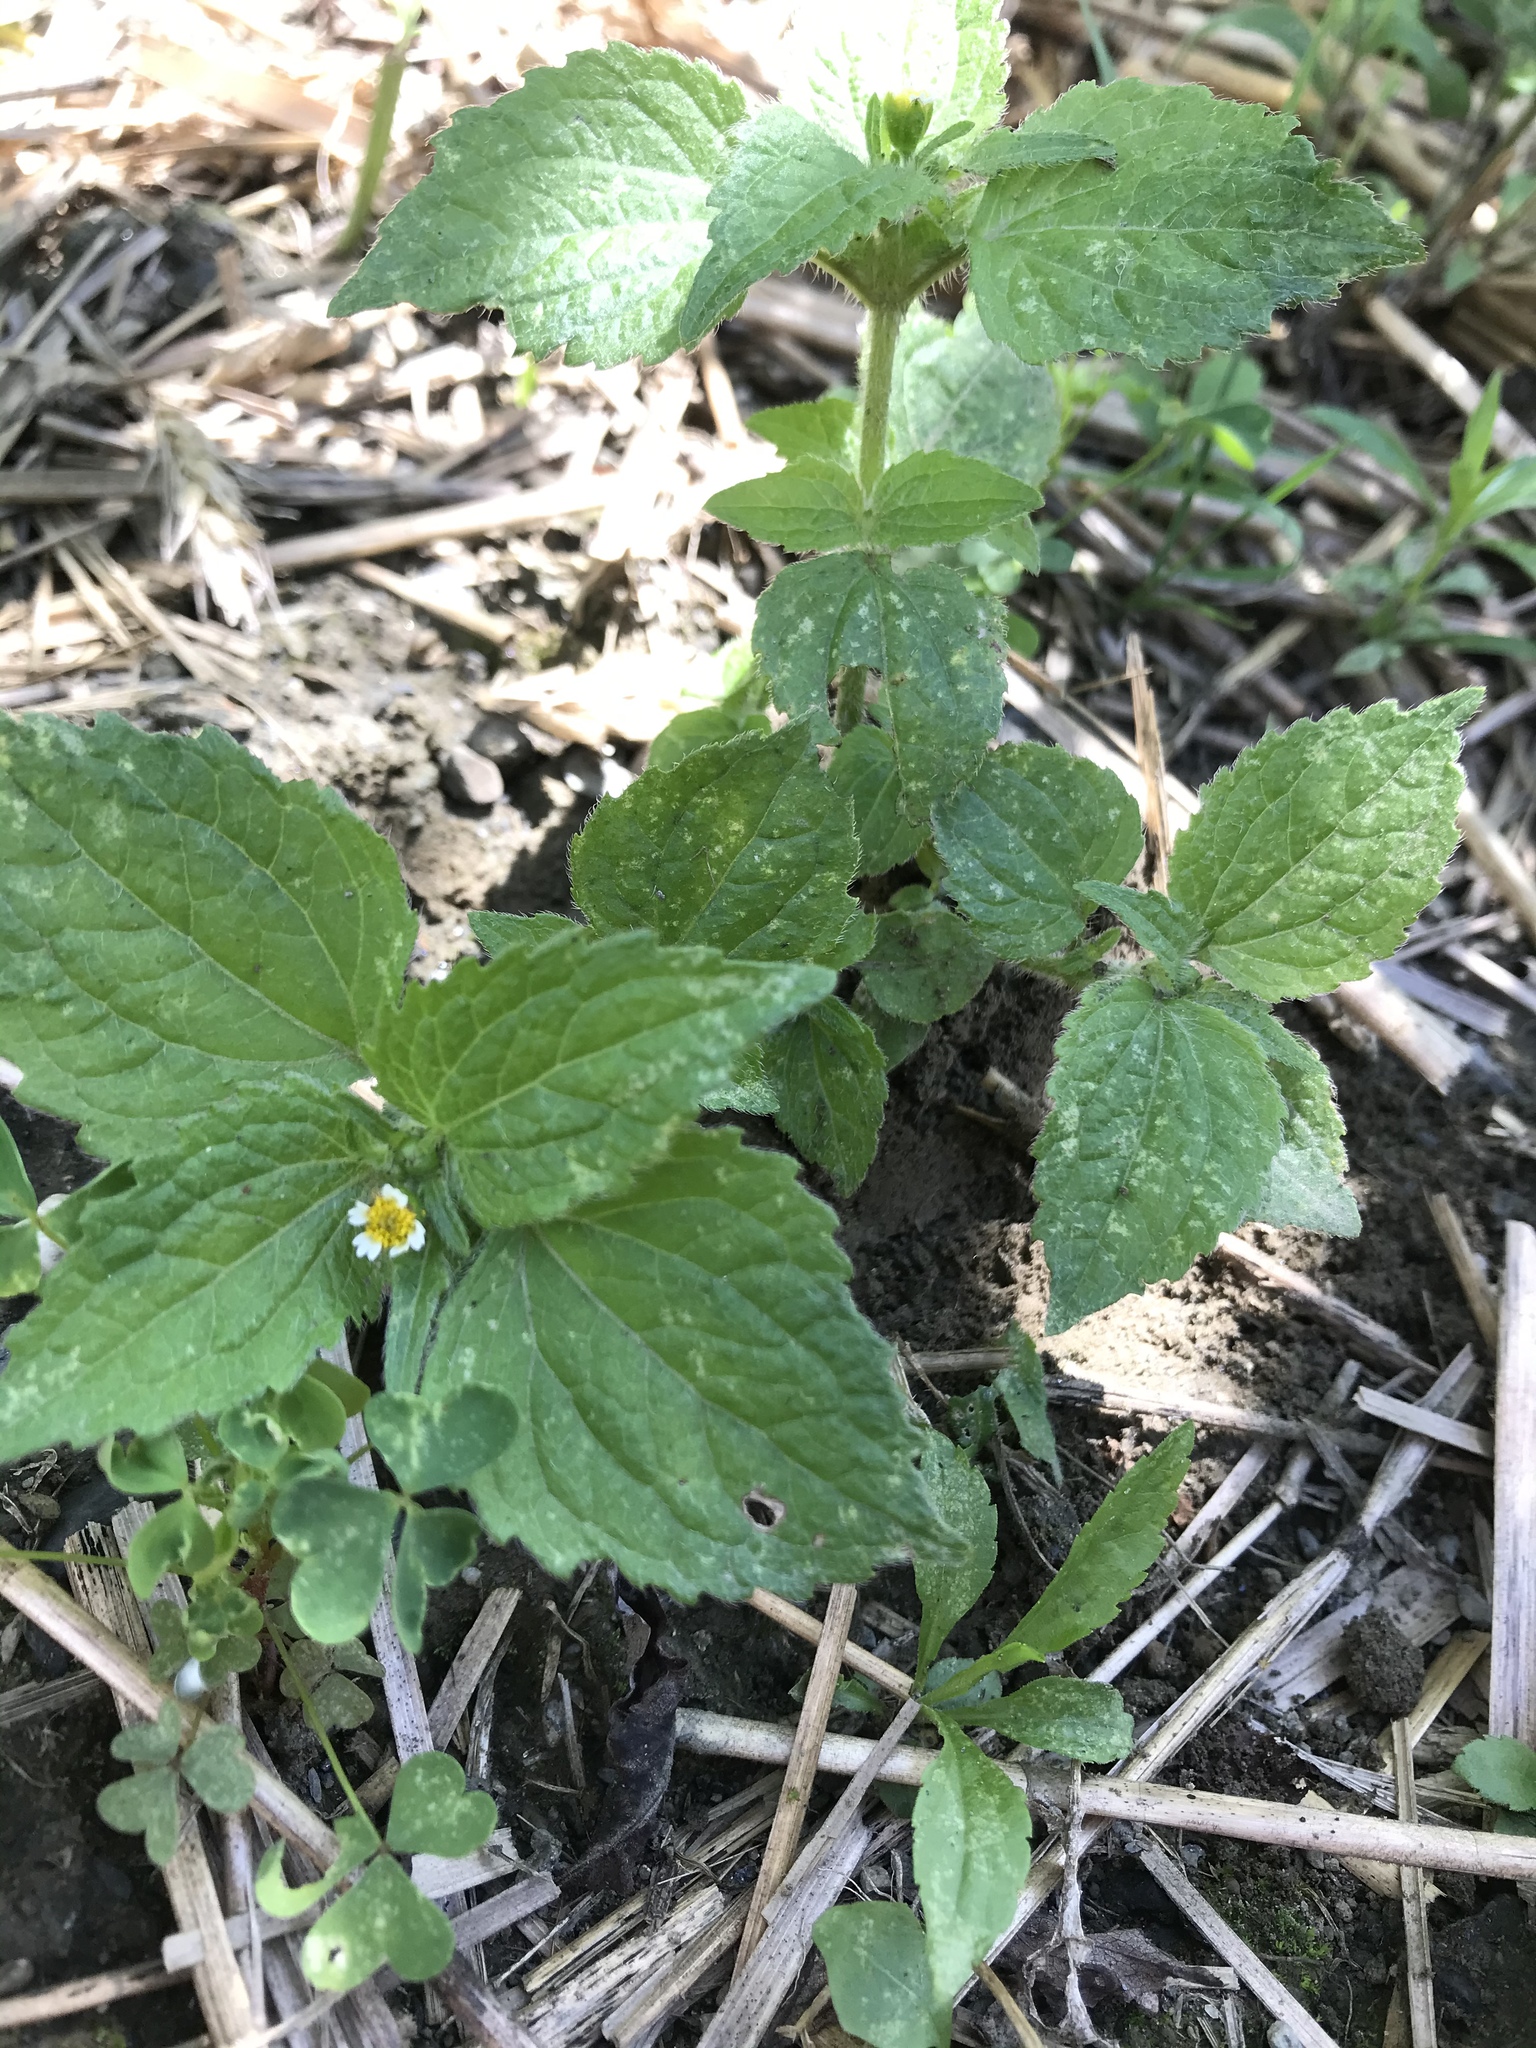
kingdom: Plantae
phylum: Tracheophyta
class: Magnoliopsida
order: Asterales
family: Asteraceae
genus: Galinsoga
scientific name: Galinsoga quadriradiata
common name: Shaggy soldier
